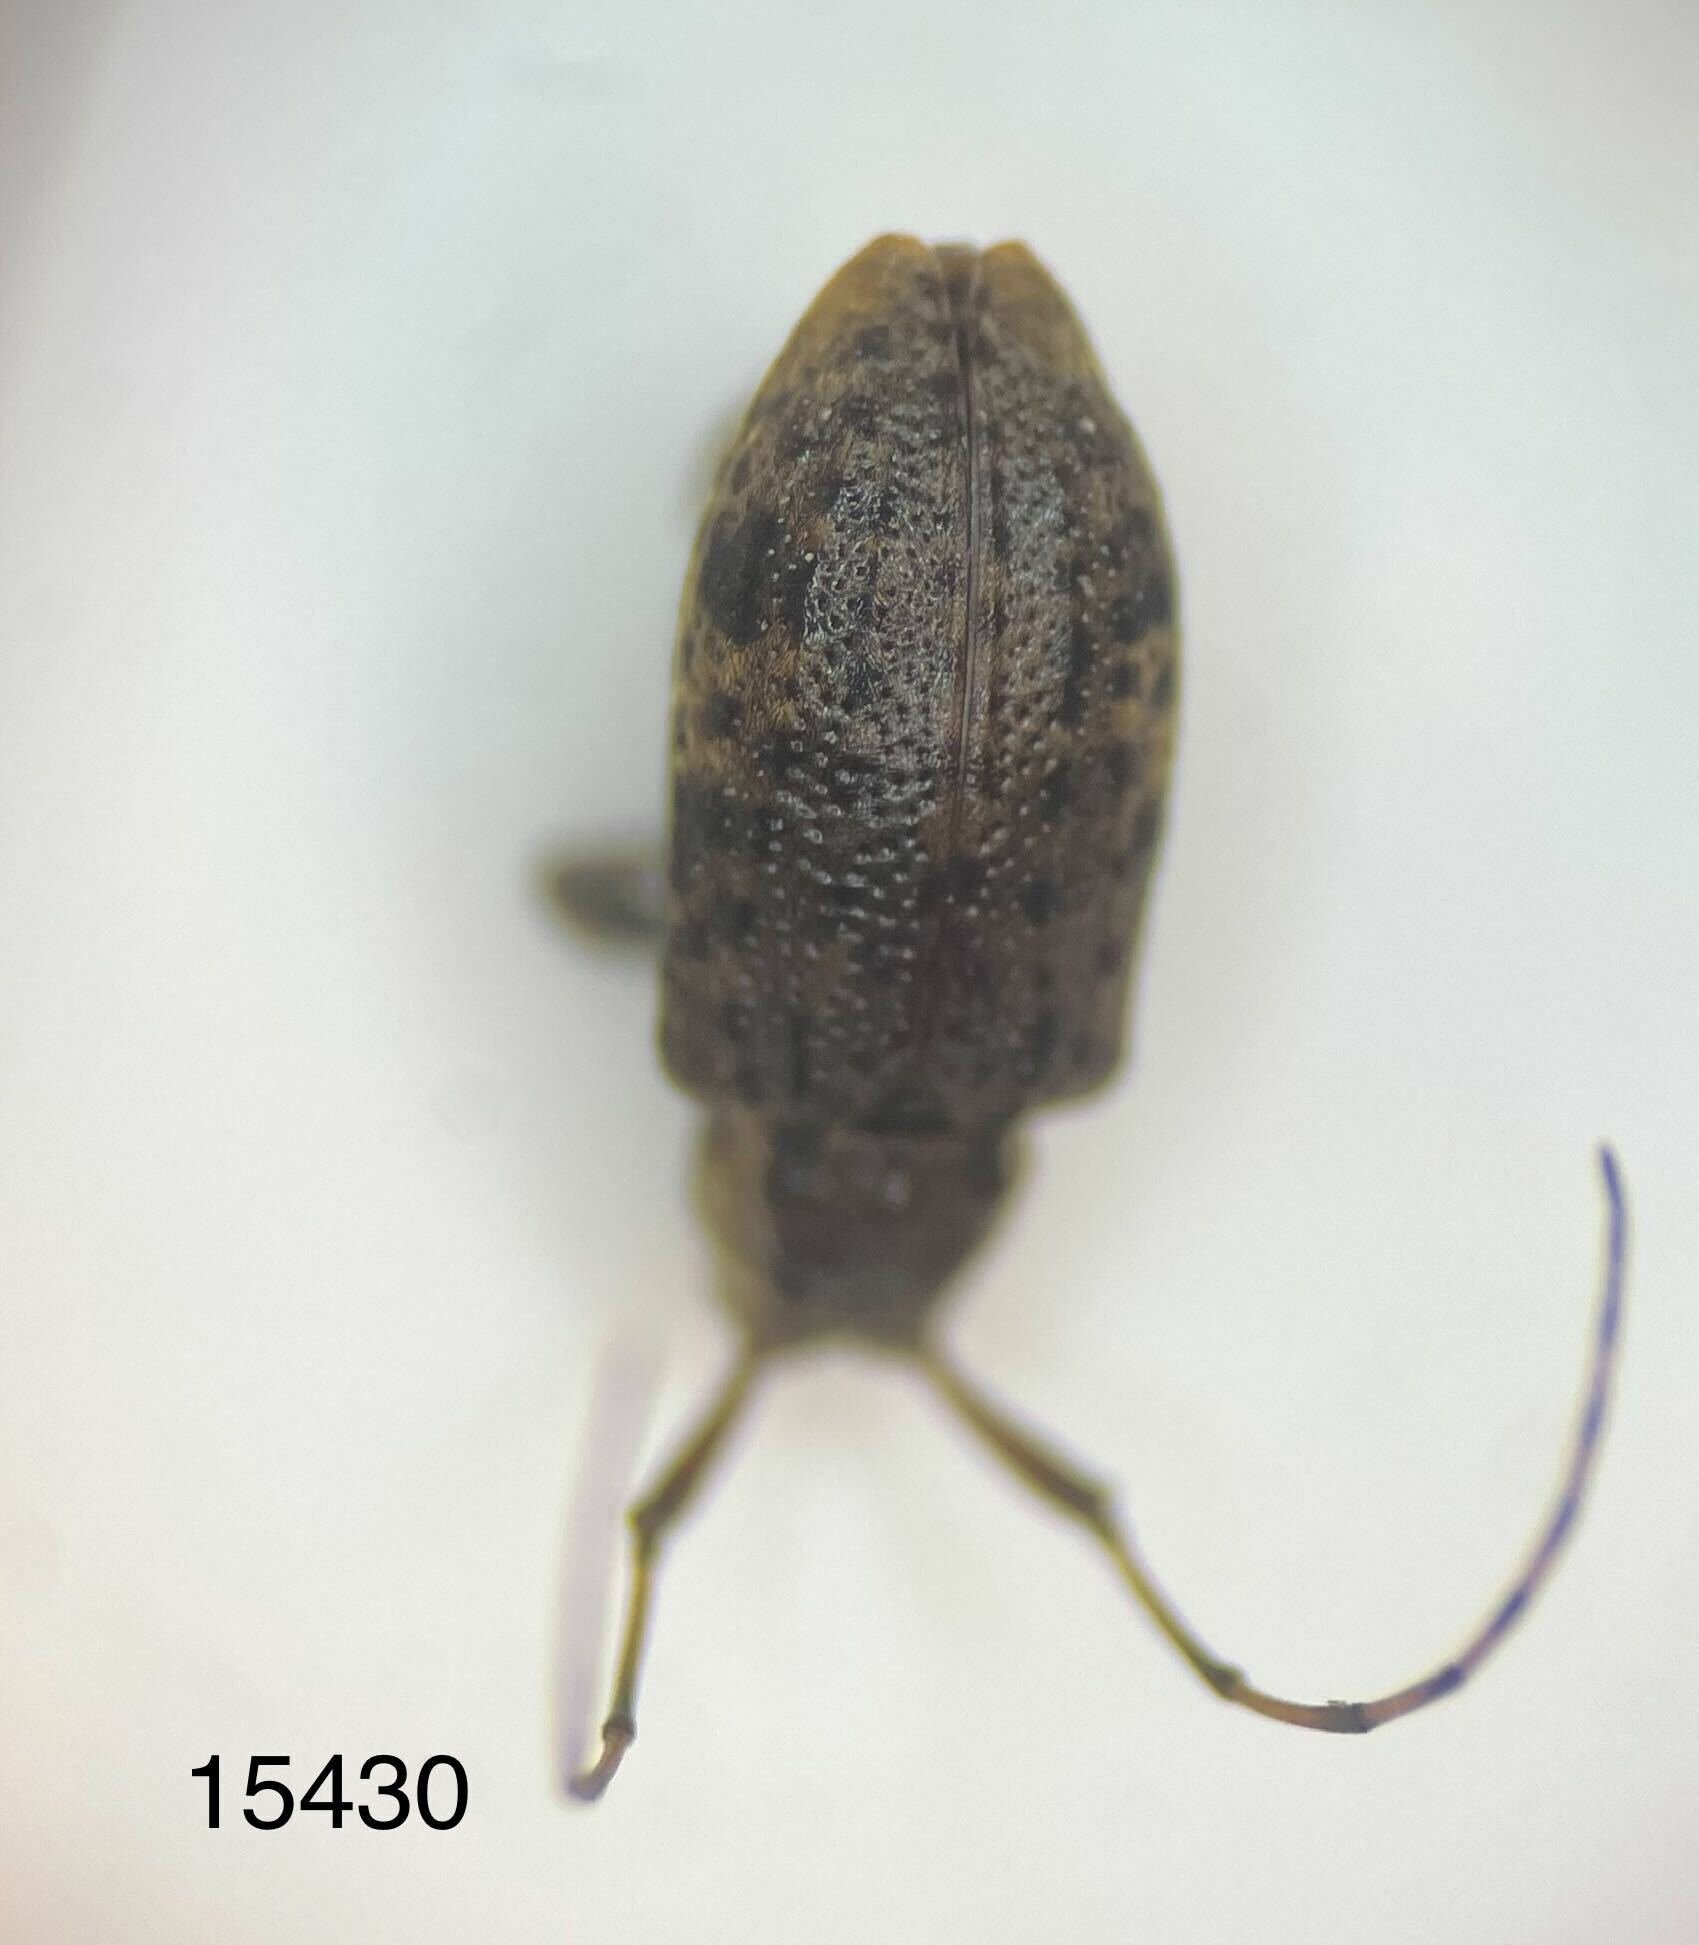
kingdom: Animalia
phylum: Arthropoda
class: Insecta
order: Coleoptera
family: Cerambycidae
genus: Astylopsis
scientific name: Astylopsis macula
